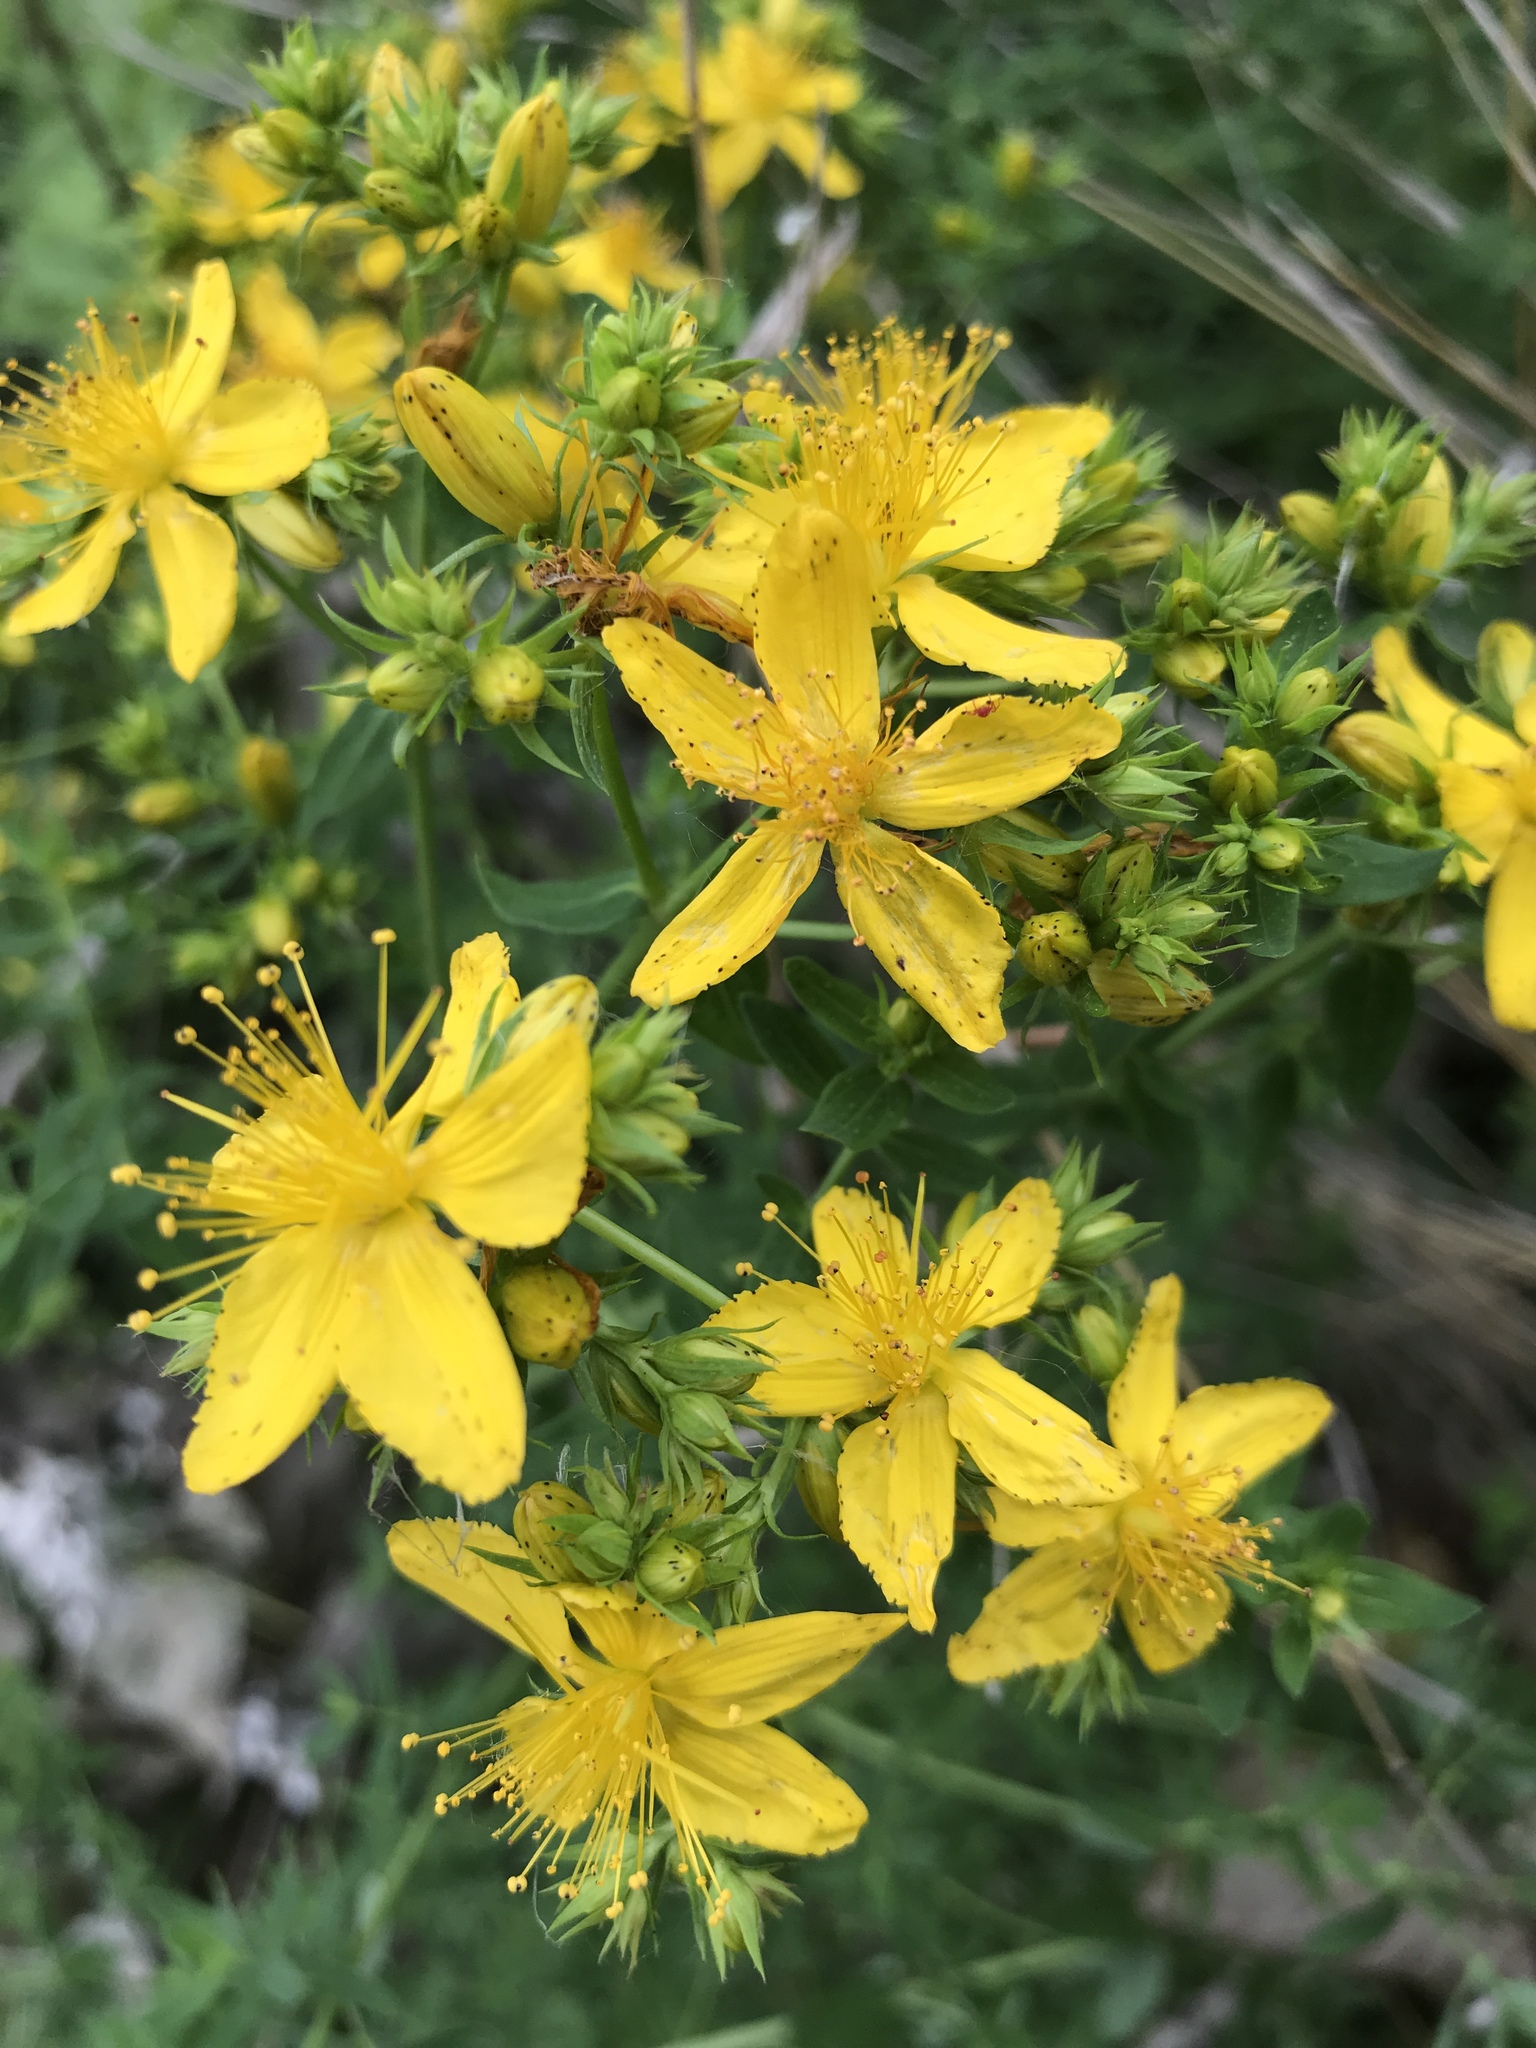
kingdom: Plantae
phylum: Tracheophyta
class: Magnoliopsida
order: Malpighiales
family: Hypericaceae
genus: Hypericum
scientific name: Hypericum perforatum
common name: Common st. johnswort
